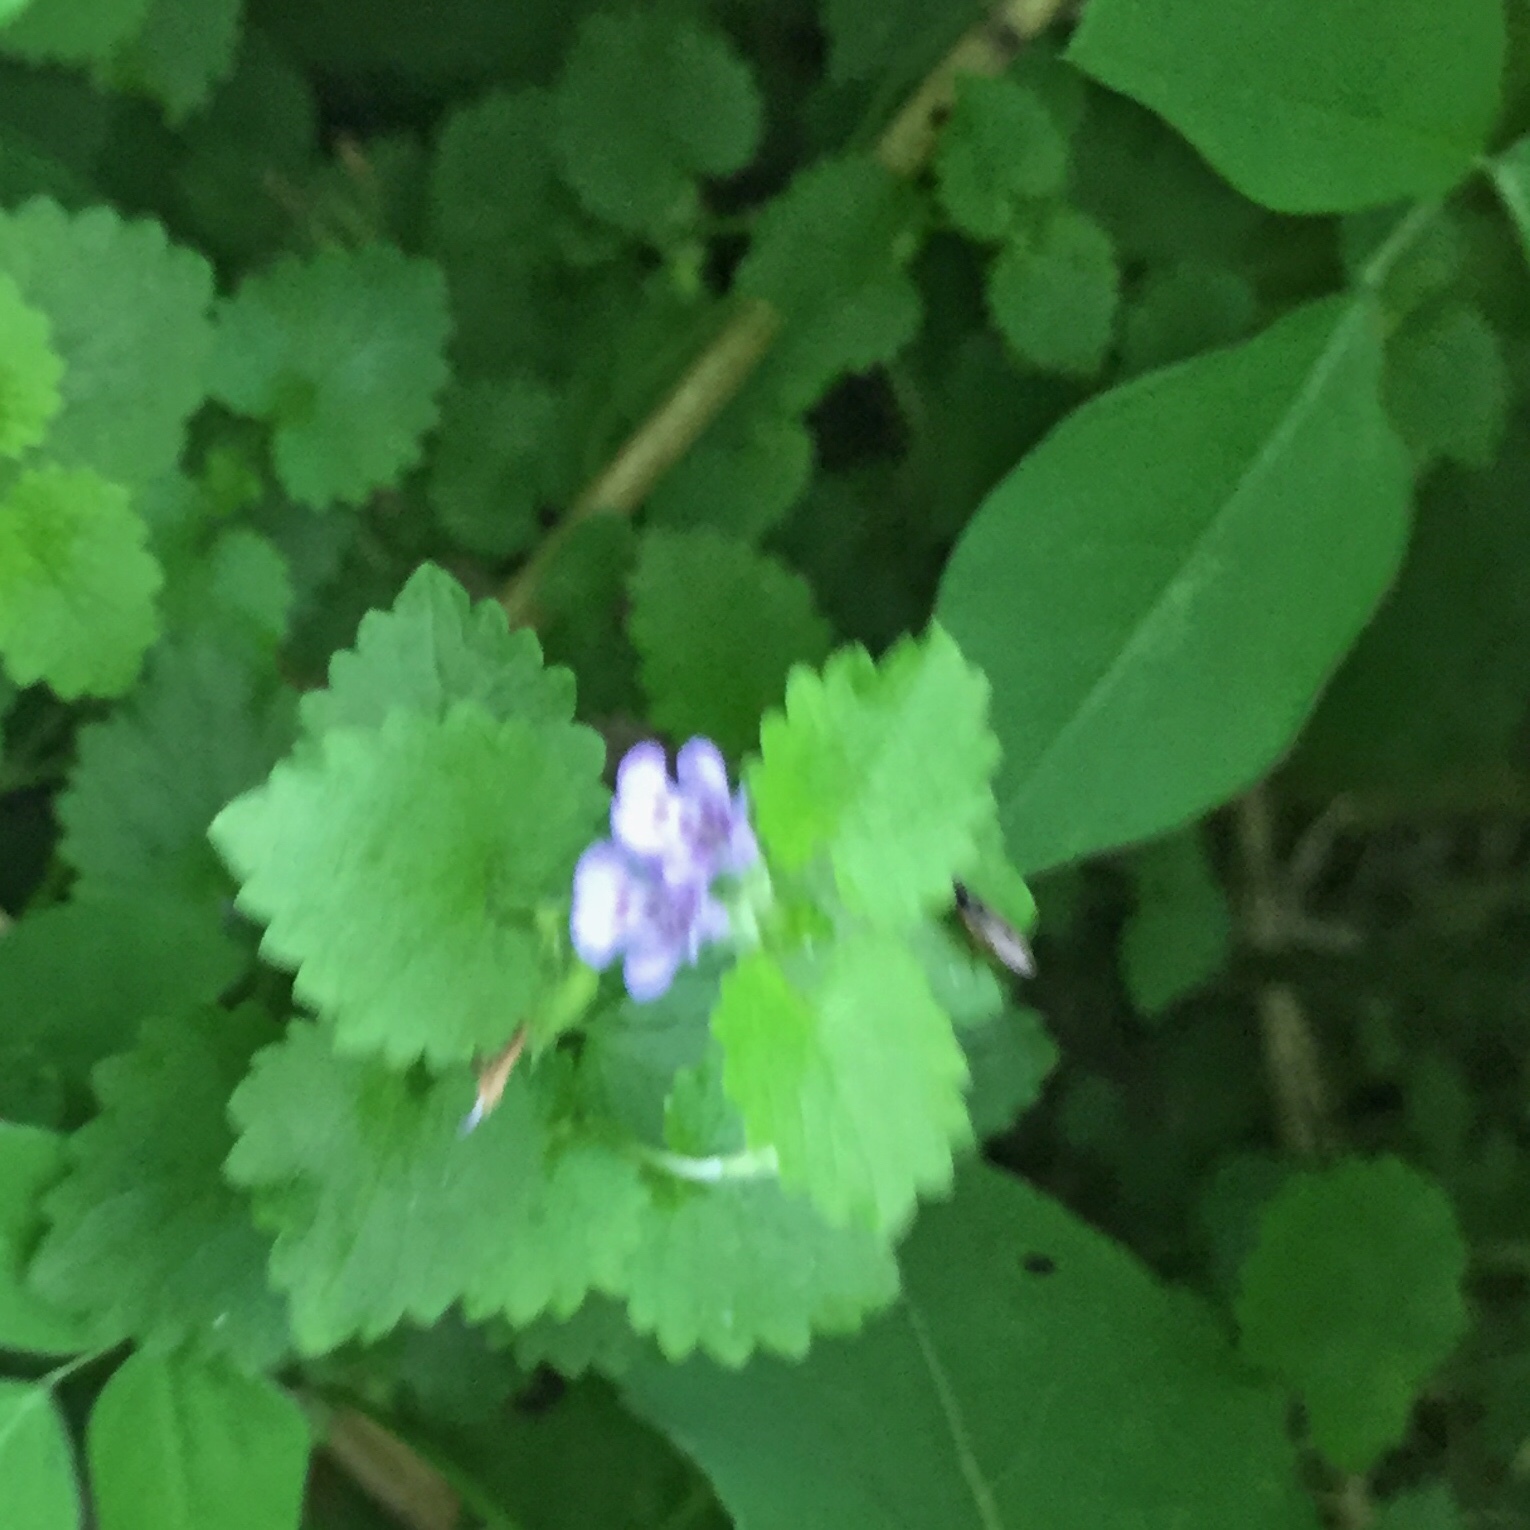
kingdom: Plantae
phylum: Tracheophyta
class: Magnoliopsida
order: Lamiales
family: Lamiaceae
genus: Glechoma
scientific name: Glechoma hederacea
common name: Ground ivy
